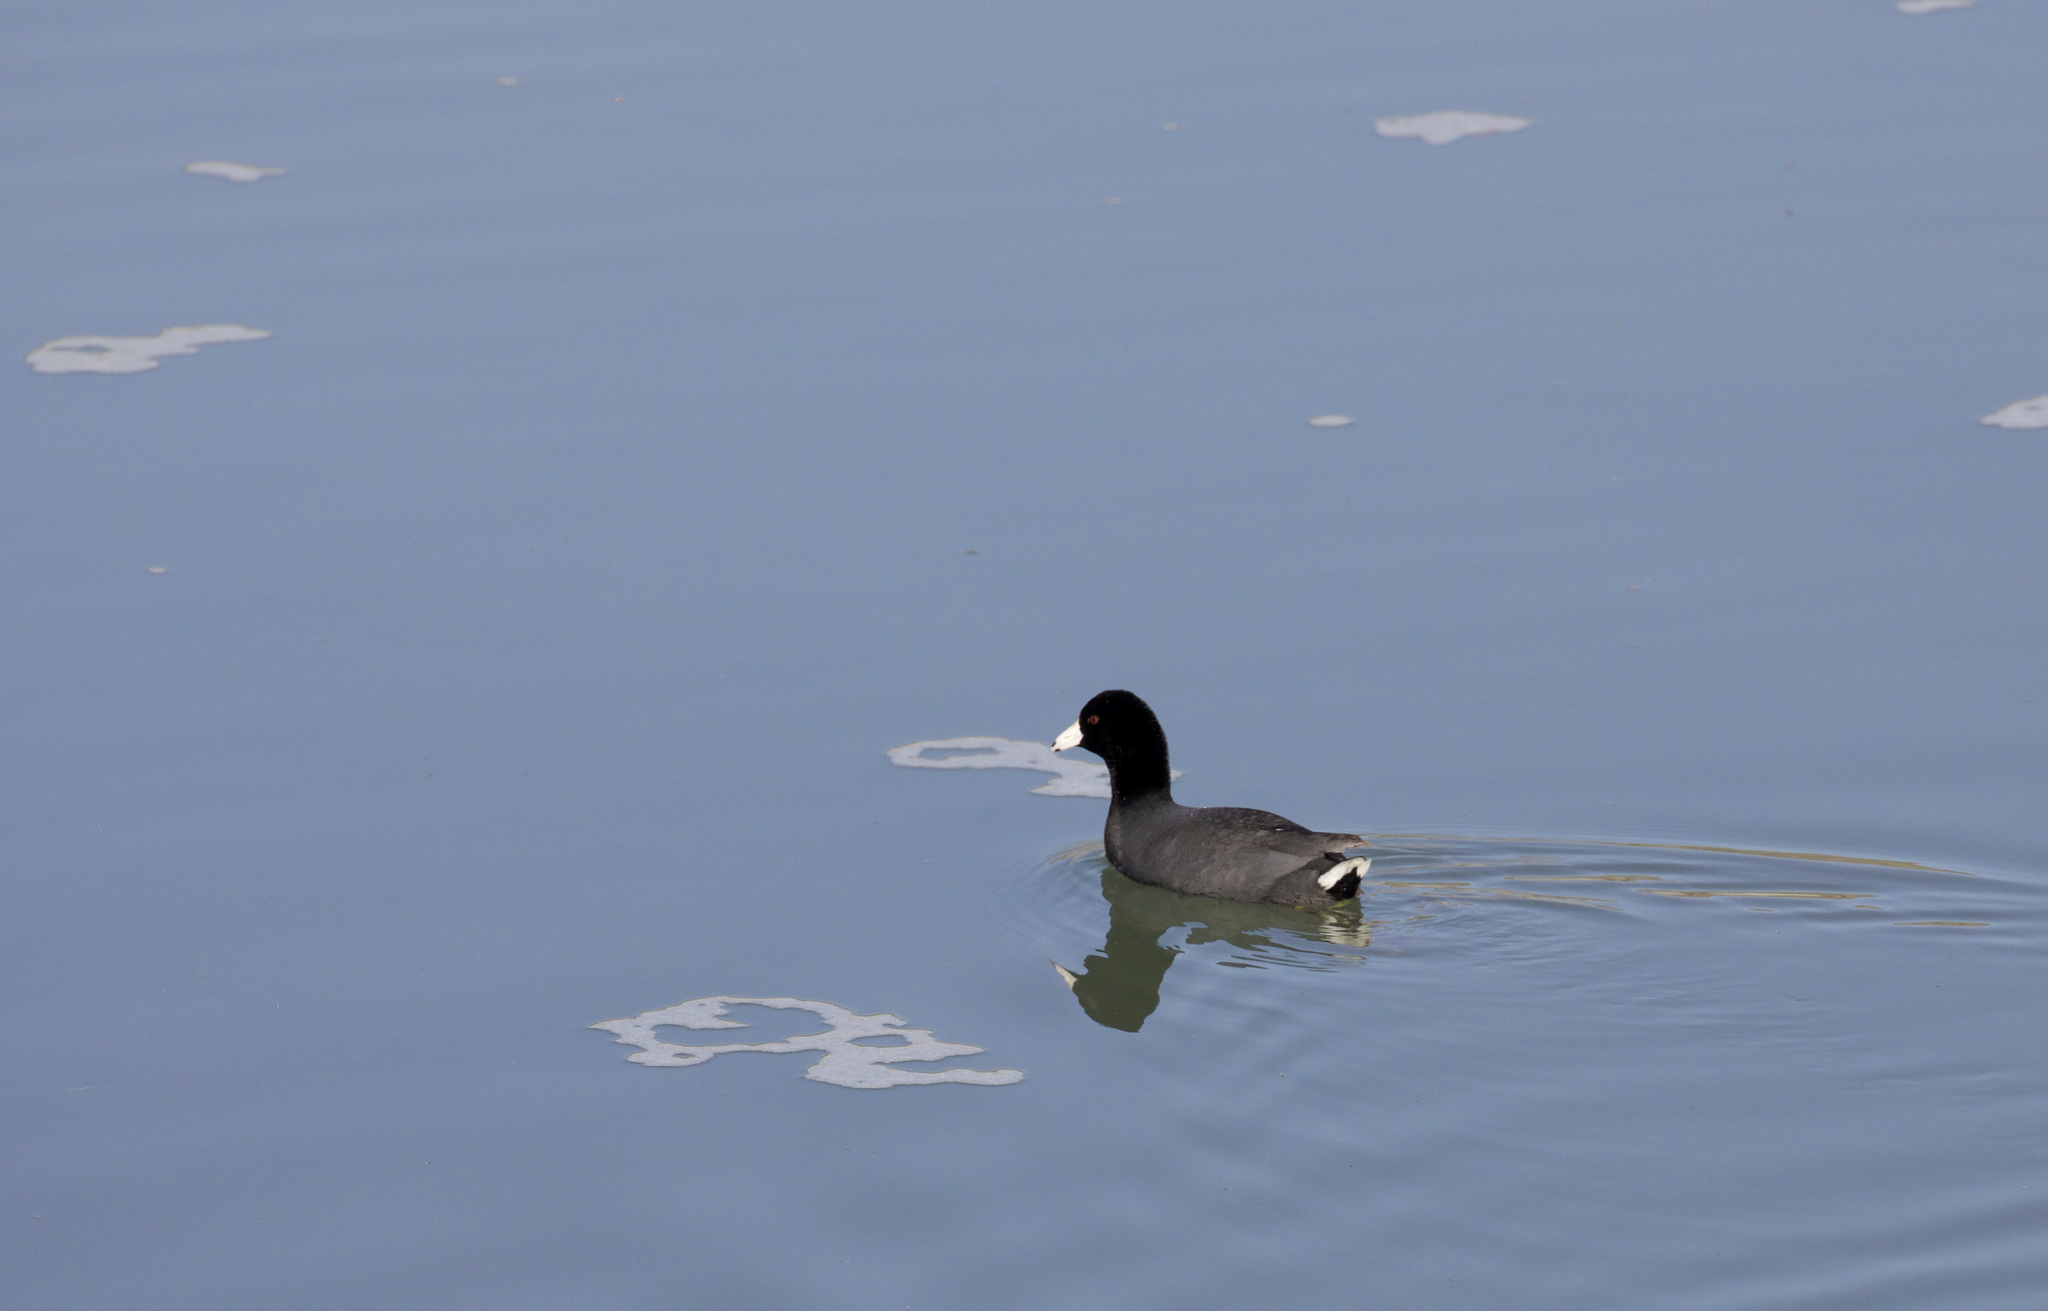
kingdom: Animalia
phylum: Chordata
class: Aves
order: Gruiformes
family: Rallidae
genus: Fulica
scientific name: Fulica americana
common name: American coot
